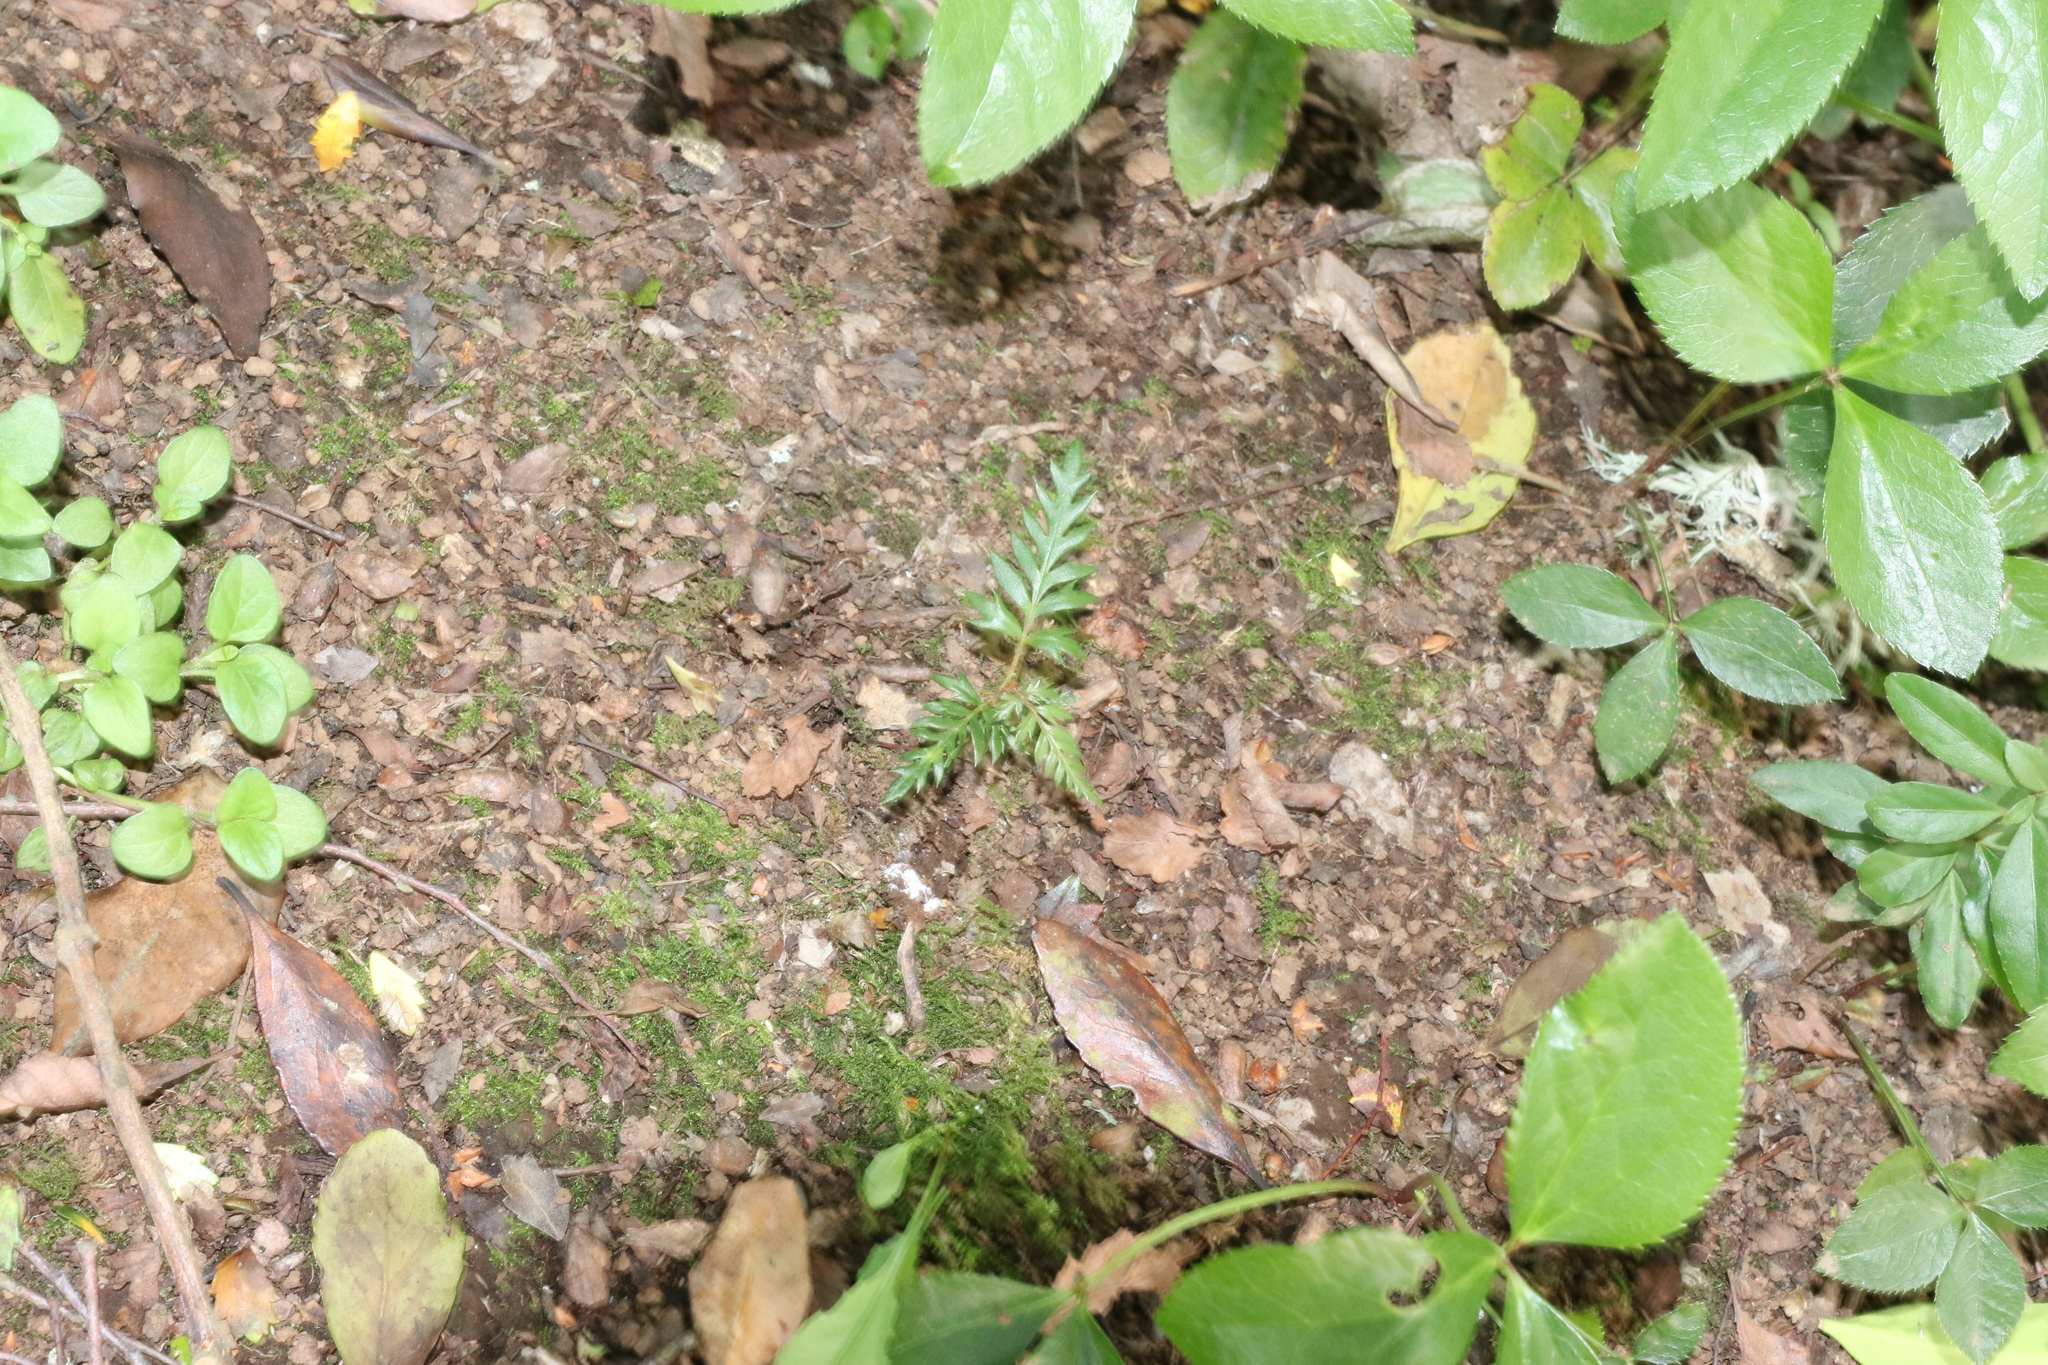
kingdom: Plantae
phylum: Tracheophyta
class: Magnoliopsida
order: Proteales
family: Proteaceae
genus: Lomatia
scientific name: Lomatia ferruginea
